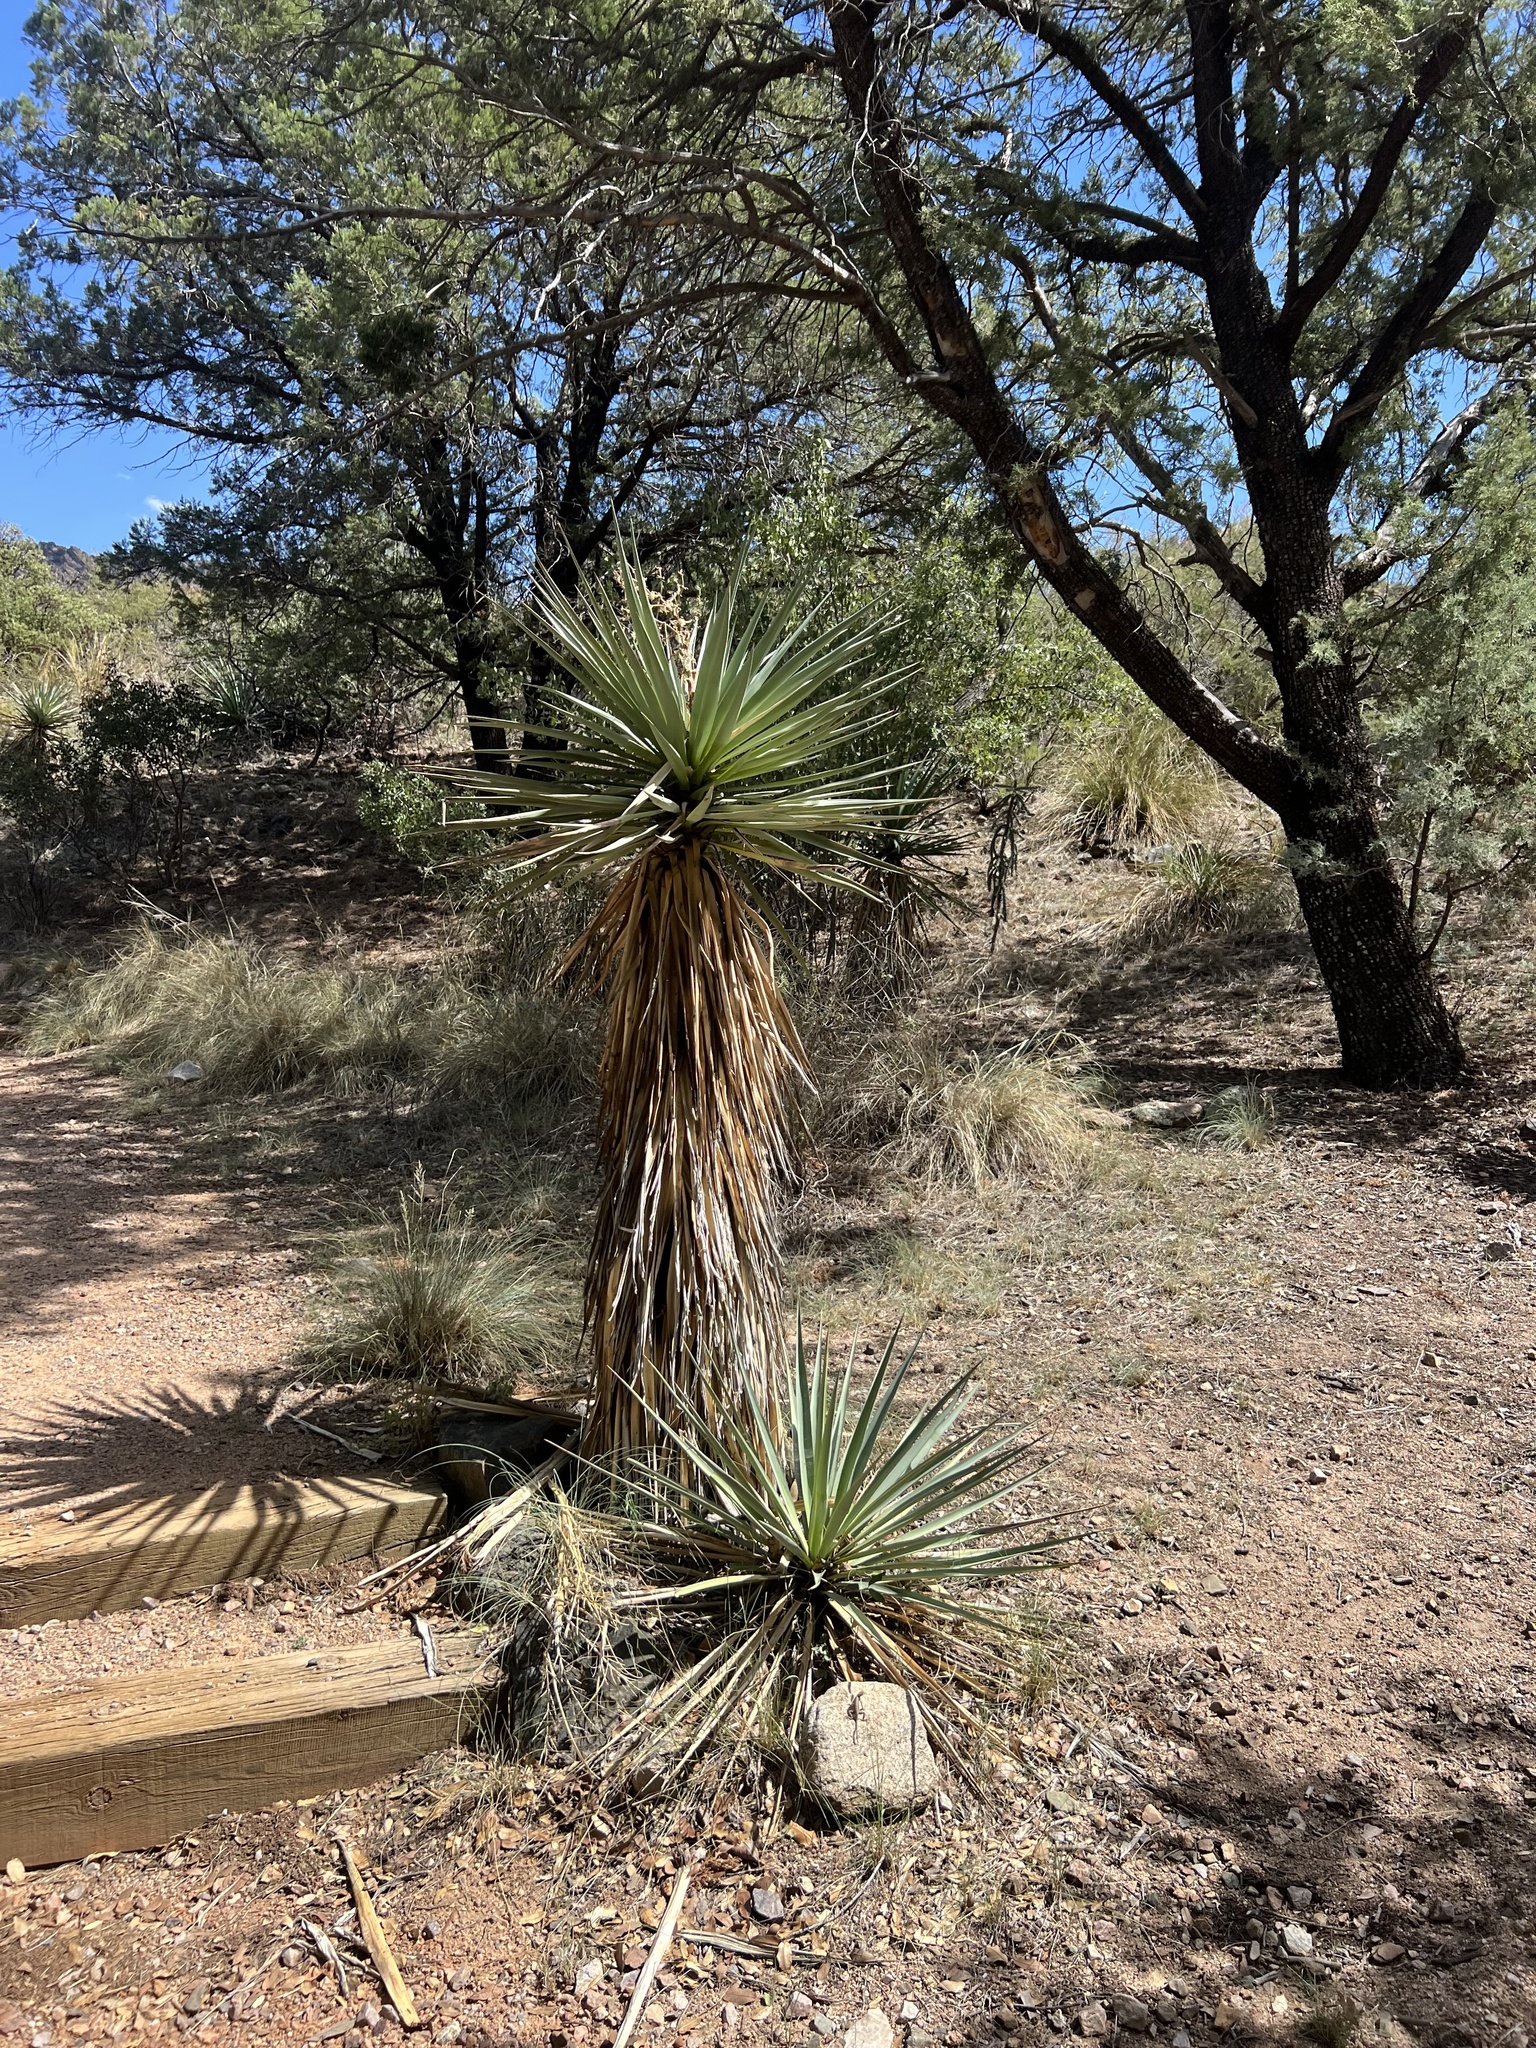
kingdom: Plantae
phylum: Tracheophyta
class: Liliopsida
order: Asparagales
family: Asparagaceae
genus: Yucca
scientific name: Yucca schottii
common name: Hoary yucca
